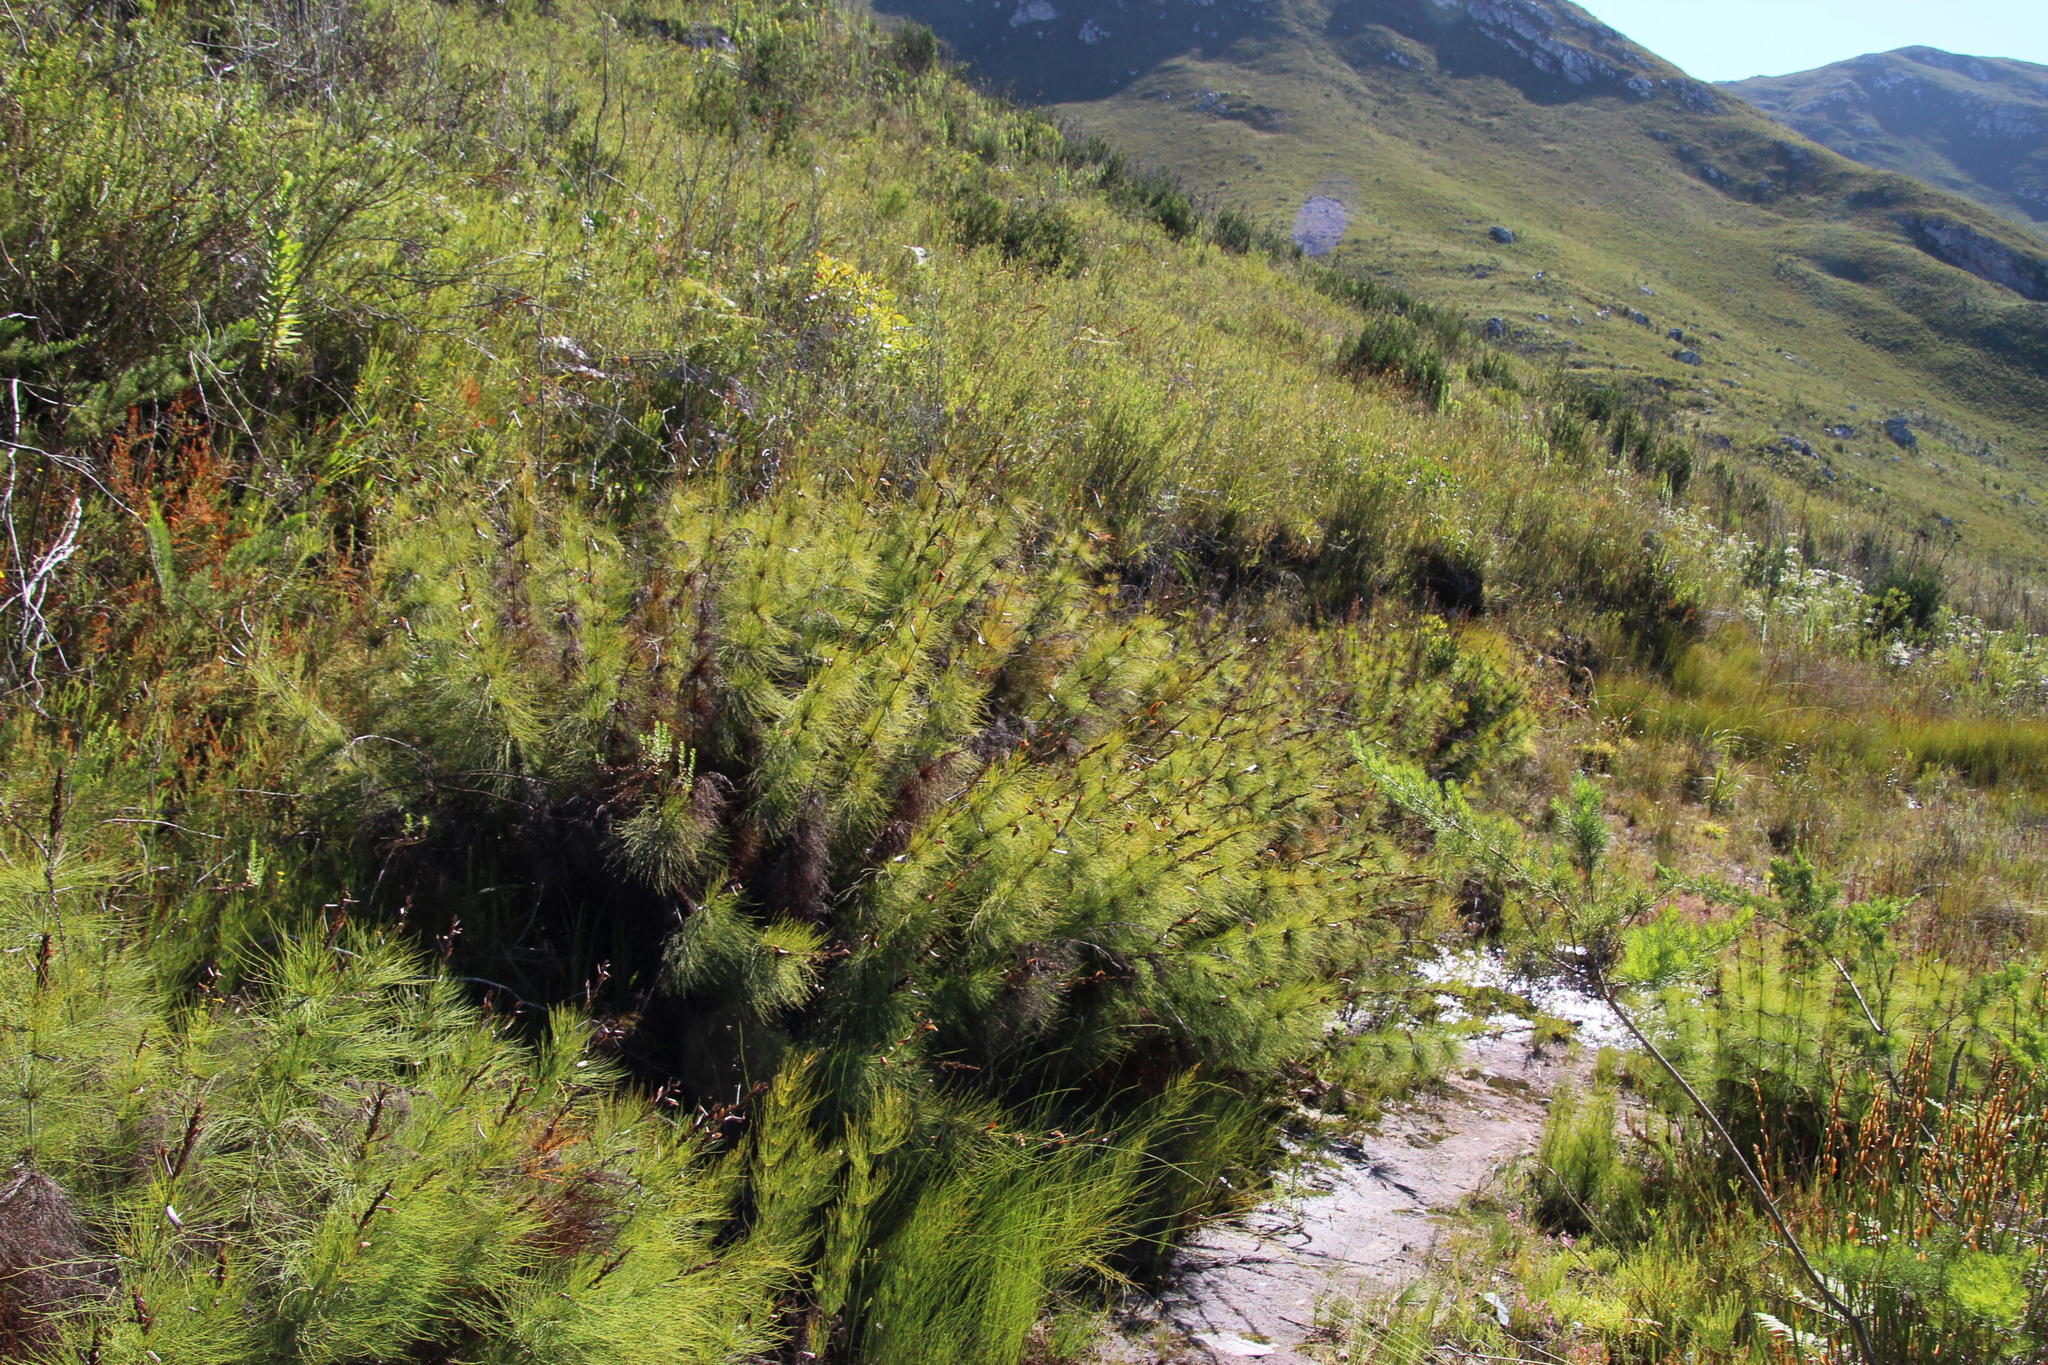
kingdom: Plantae
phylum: Tracheophyta
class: Liliopsida
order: Poales
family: Restionaceae
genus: Elegia
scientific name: Elegia capensis
